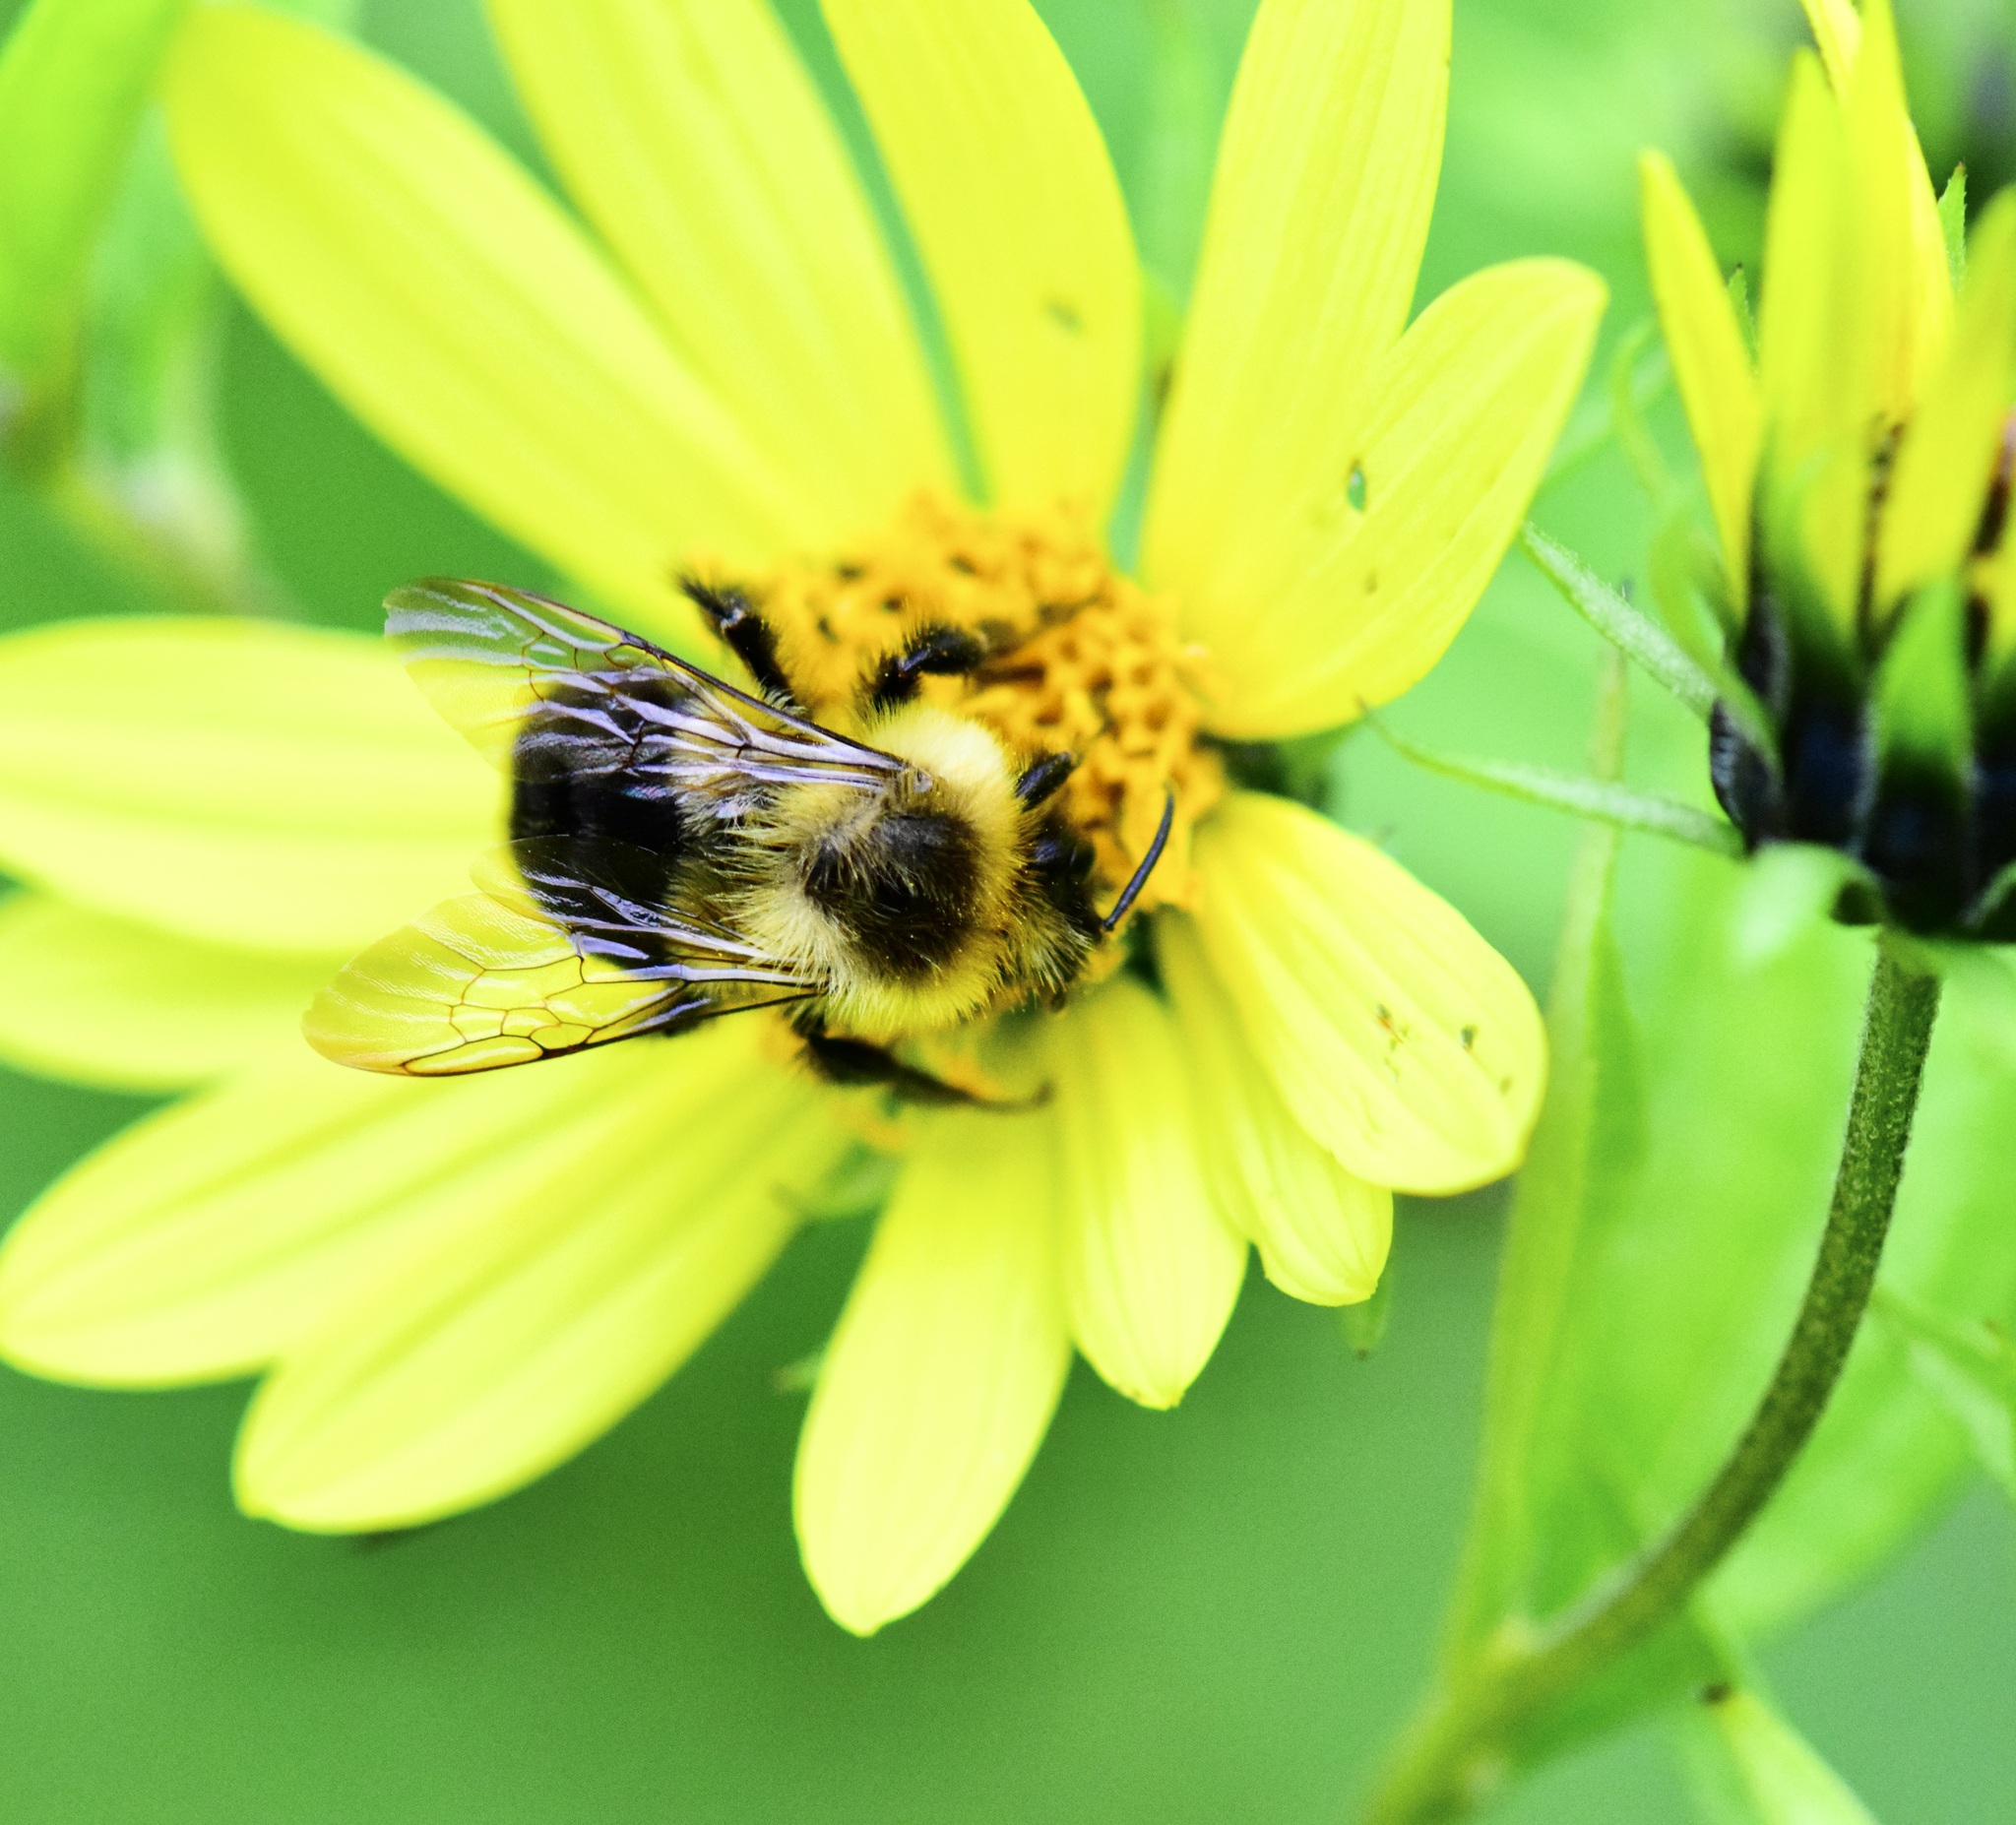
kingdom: Animalia
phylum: Arthropoda
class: Insecta
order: Hymenoptera
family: Apidae
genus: Bombus
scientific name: Bombus impatiens
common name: Common eastern bumble bee
